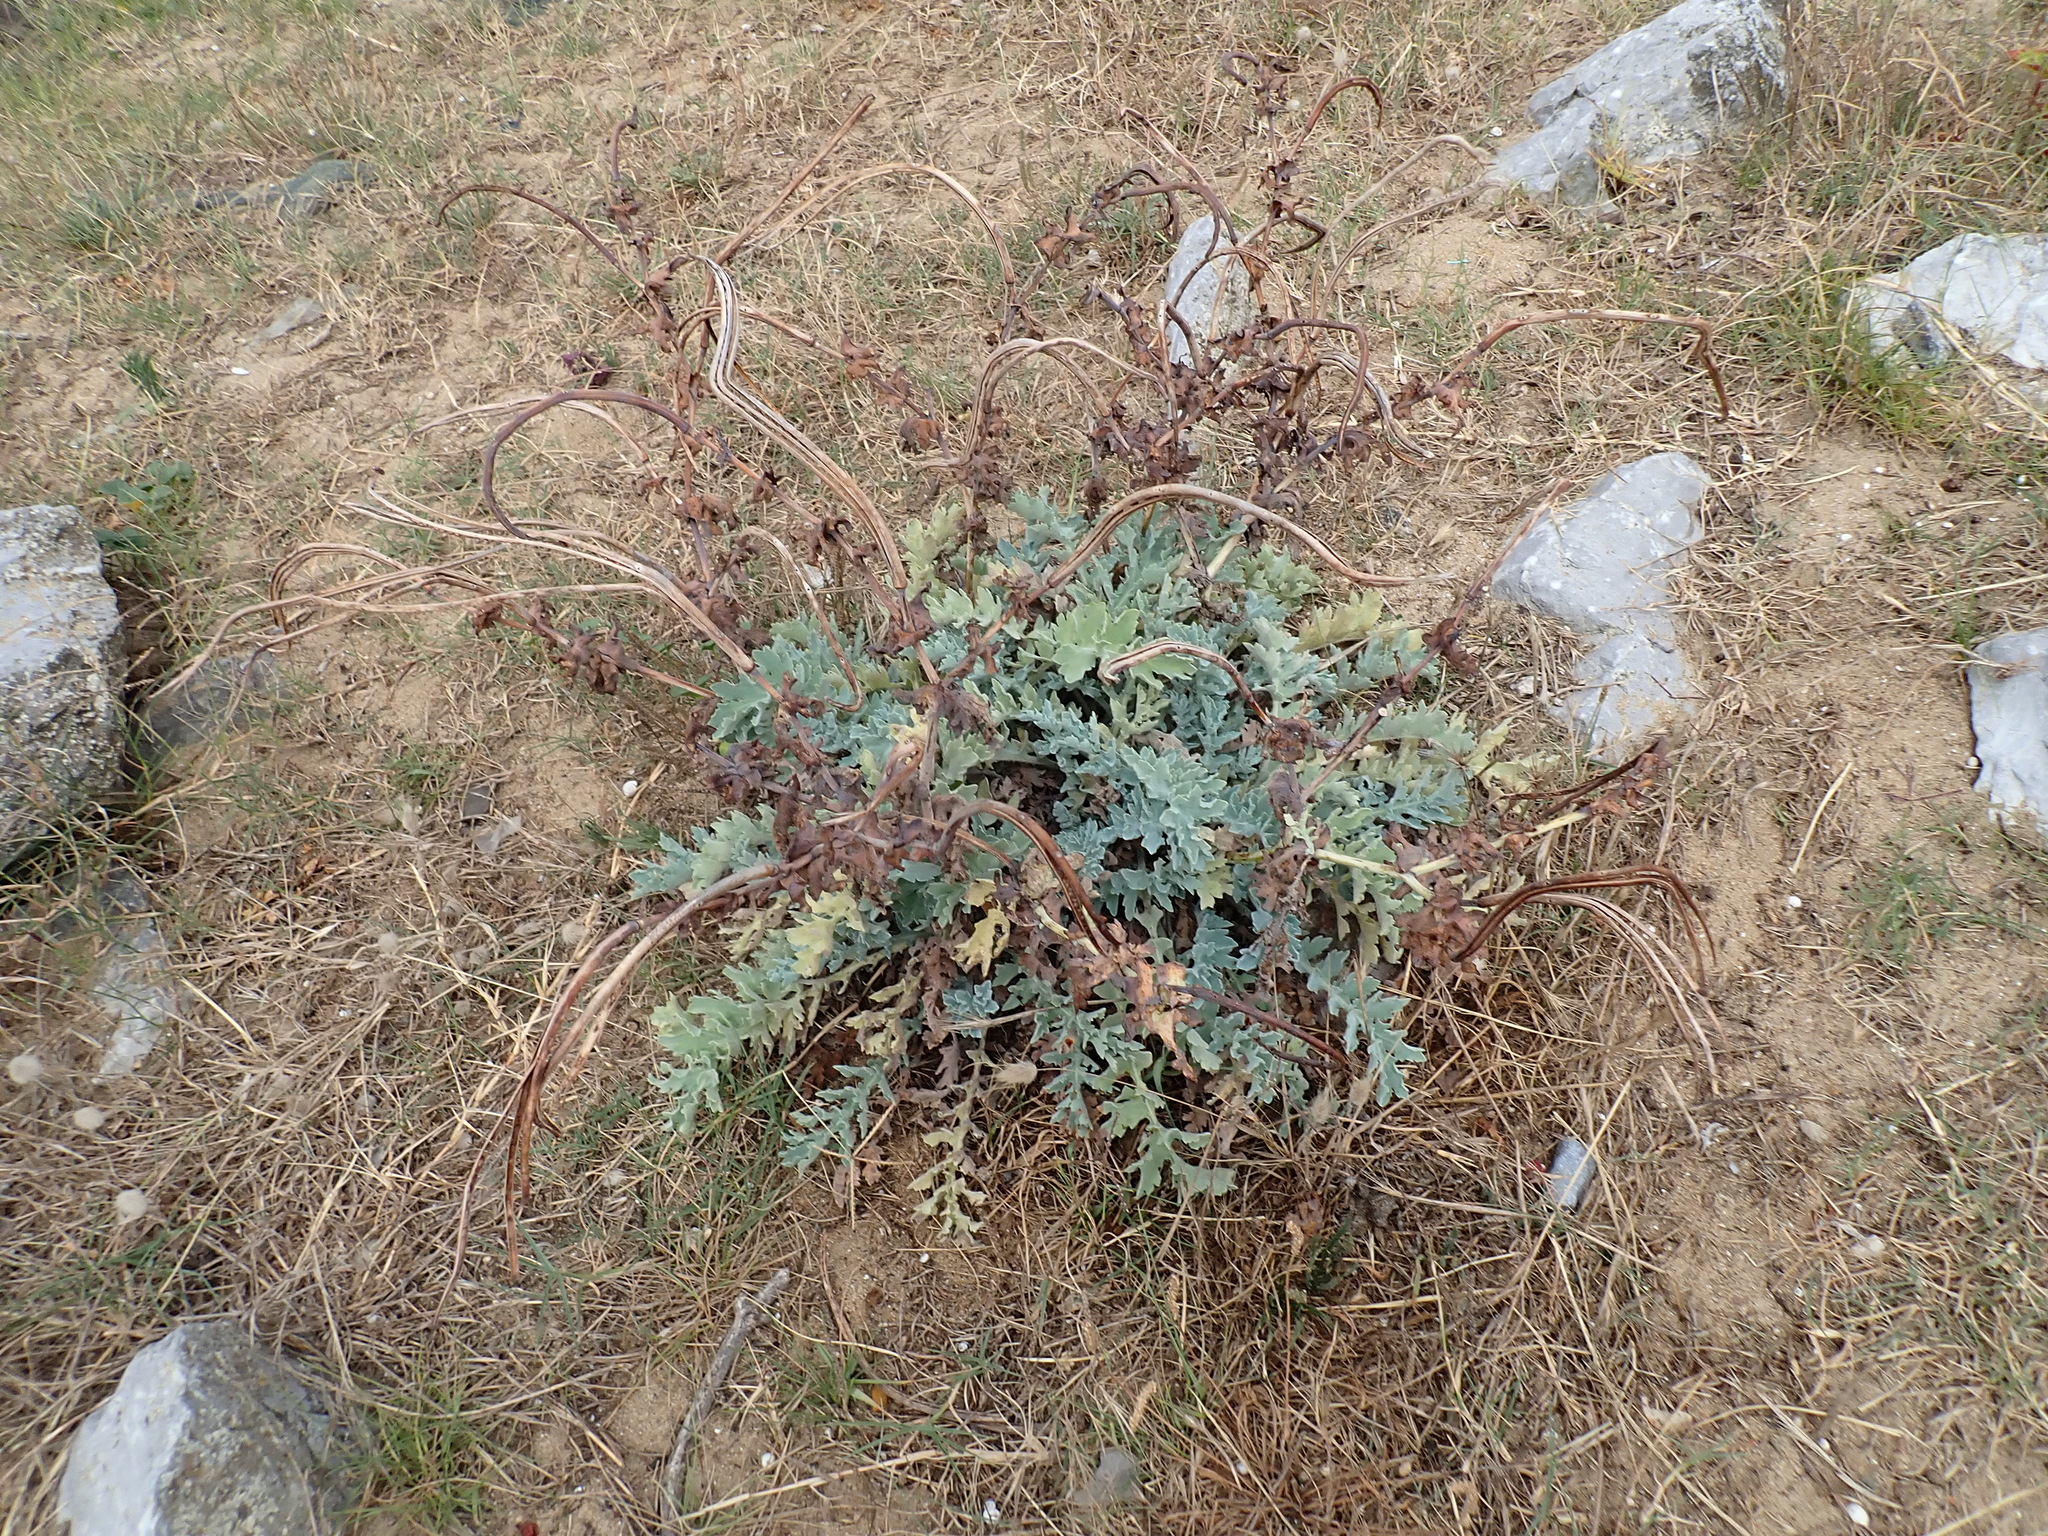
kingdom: Plantae
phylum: Tracheophyta
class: Magnoliopsida
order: Ranunculales
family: Papaveraceae
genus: Glaucium
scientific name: Glaucium flavum
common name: Yellow horned-poppy
